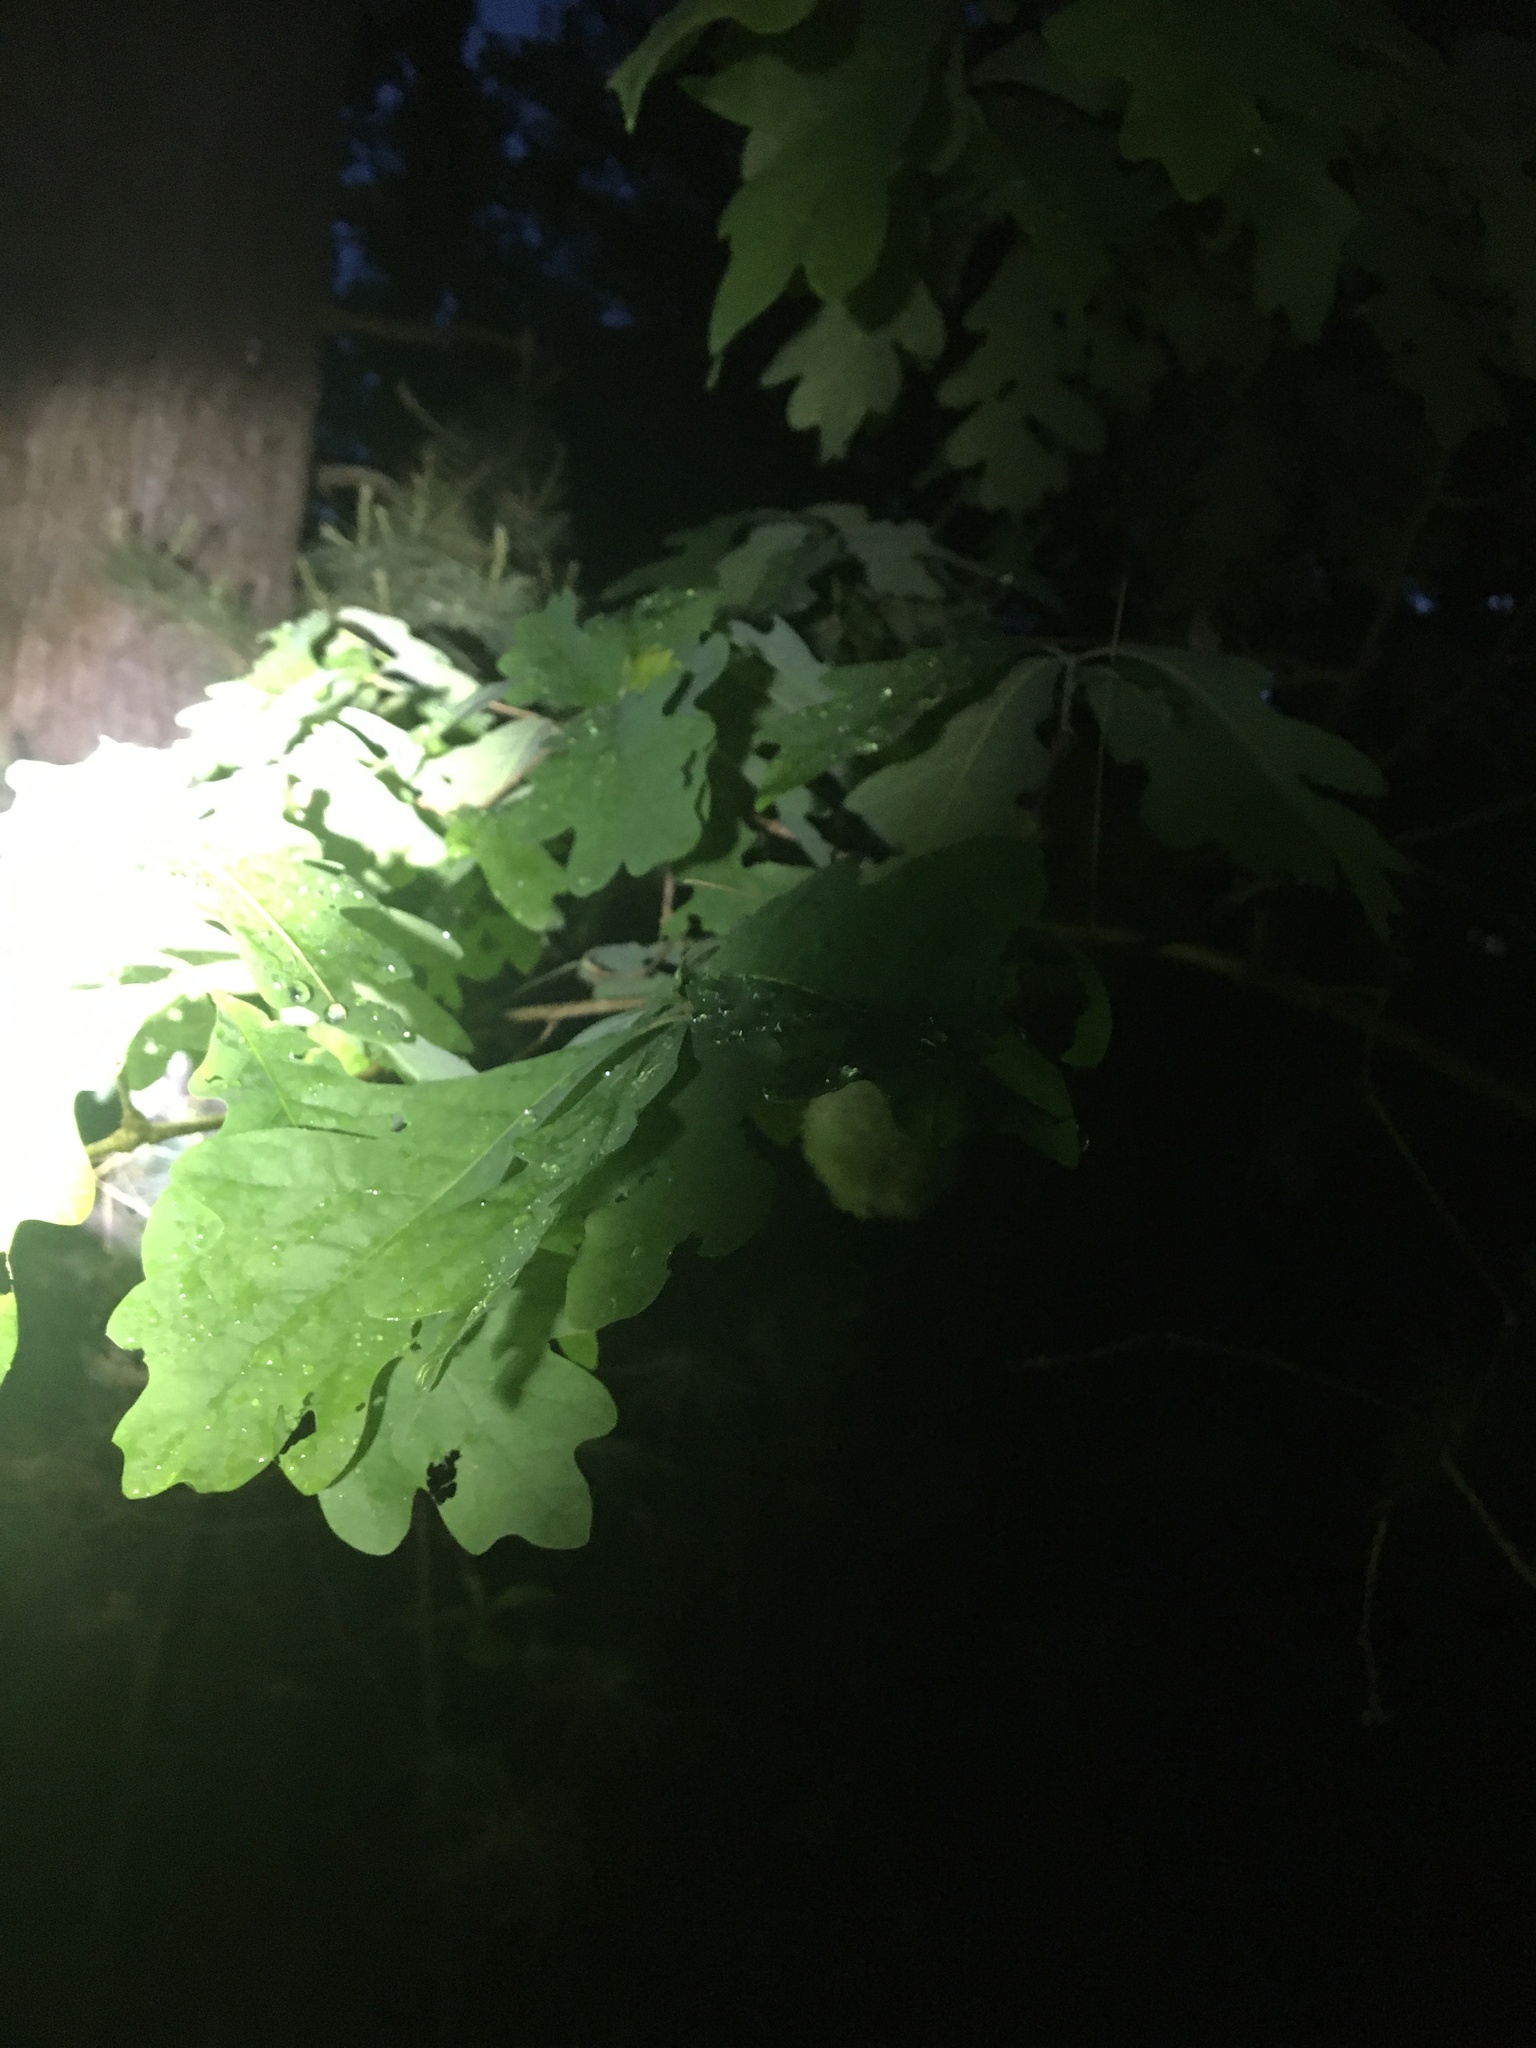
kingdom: Animalia
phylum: Arthropoda
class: Insecta
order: Hymenoptera
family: Cynipidae
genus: Callirhytis
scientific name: Callirhytis
